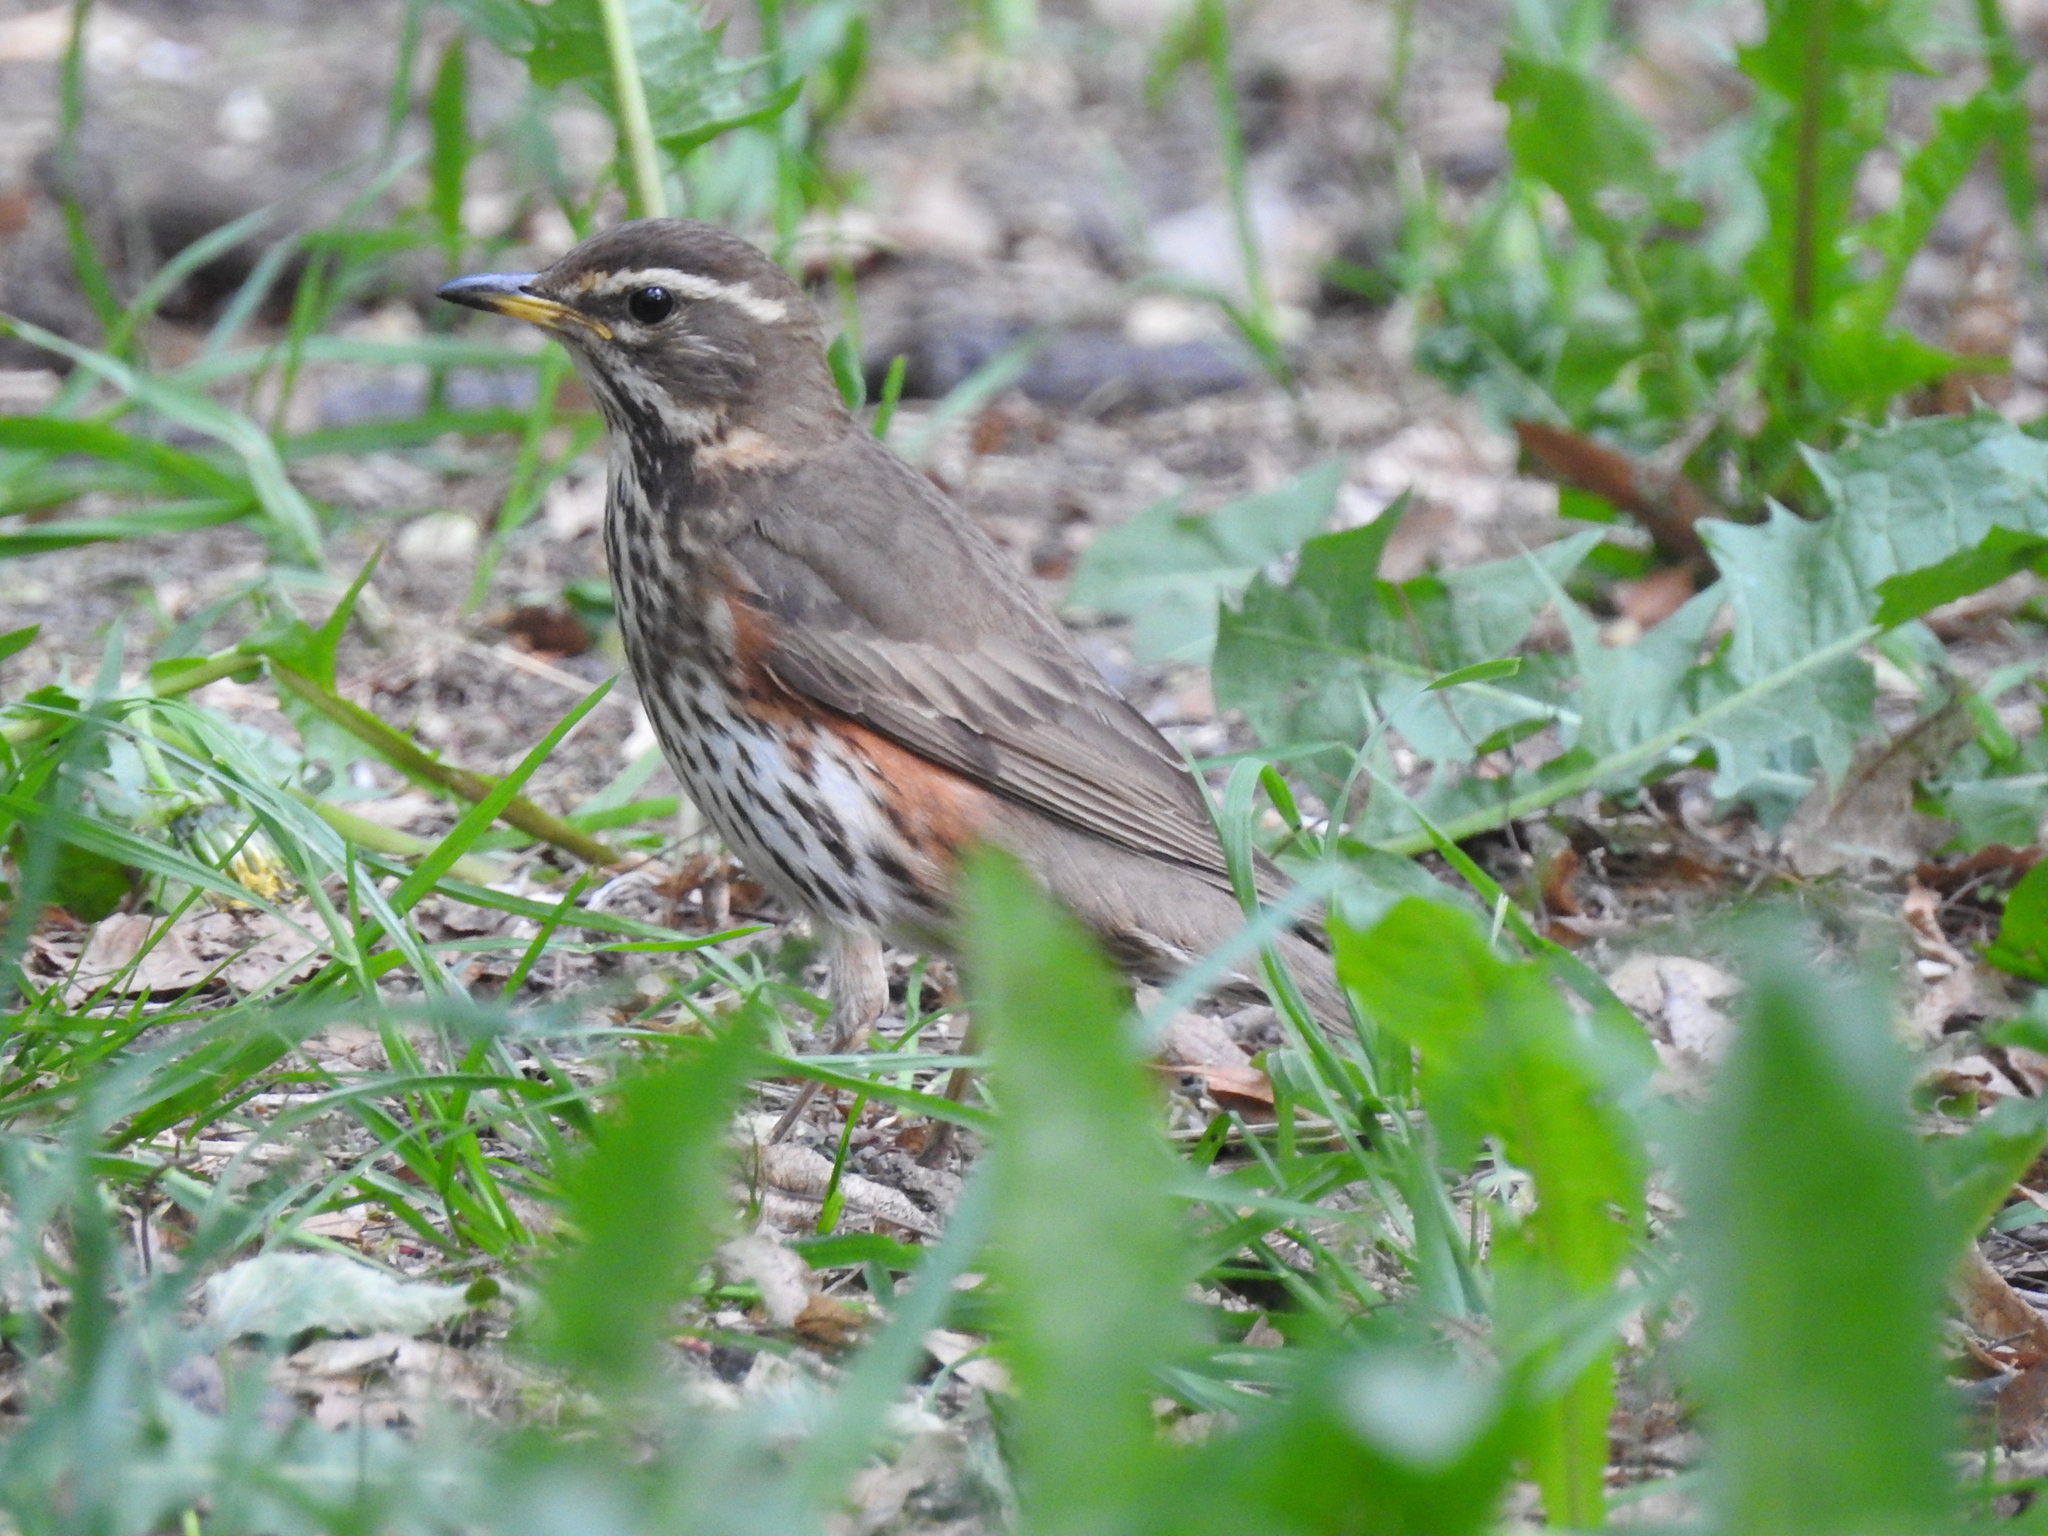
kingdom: Animalia
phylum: Chordata
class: Aves
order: Passeriformes
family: Turdidae
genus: Turdus
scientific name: Turdus iliacus
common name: Redwing
